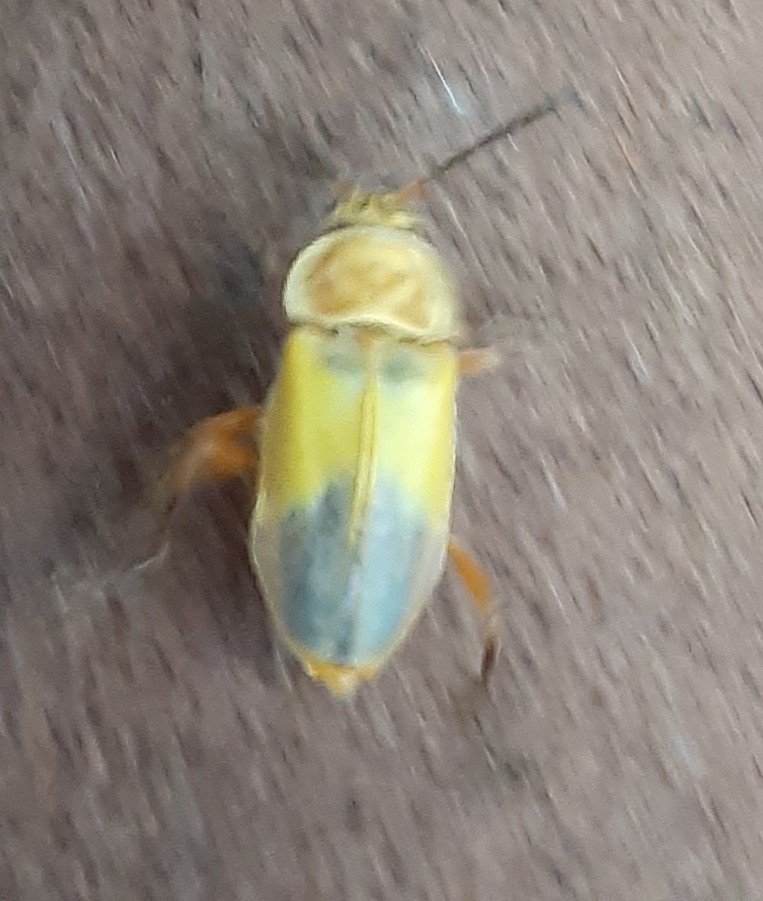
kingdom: Animalia
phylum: Arthropoda
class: Insecta
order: Coleoptera
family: Cantharidae
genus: Chauliognathus
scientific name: Chauliognathus
